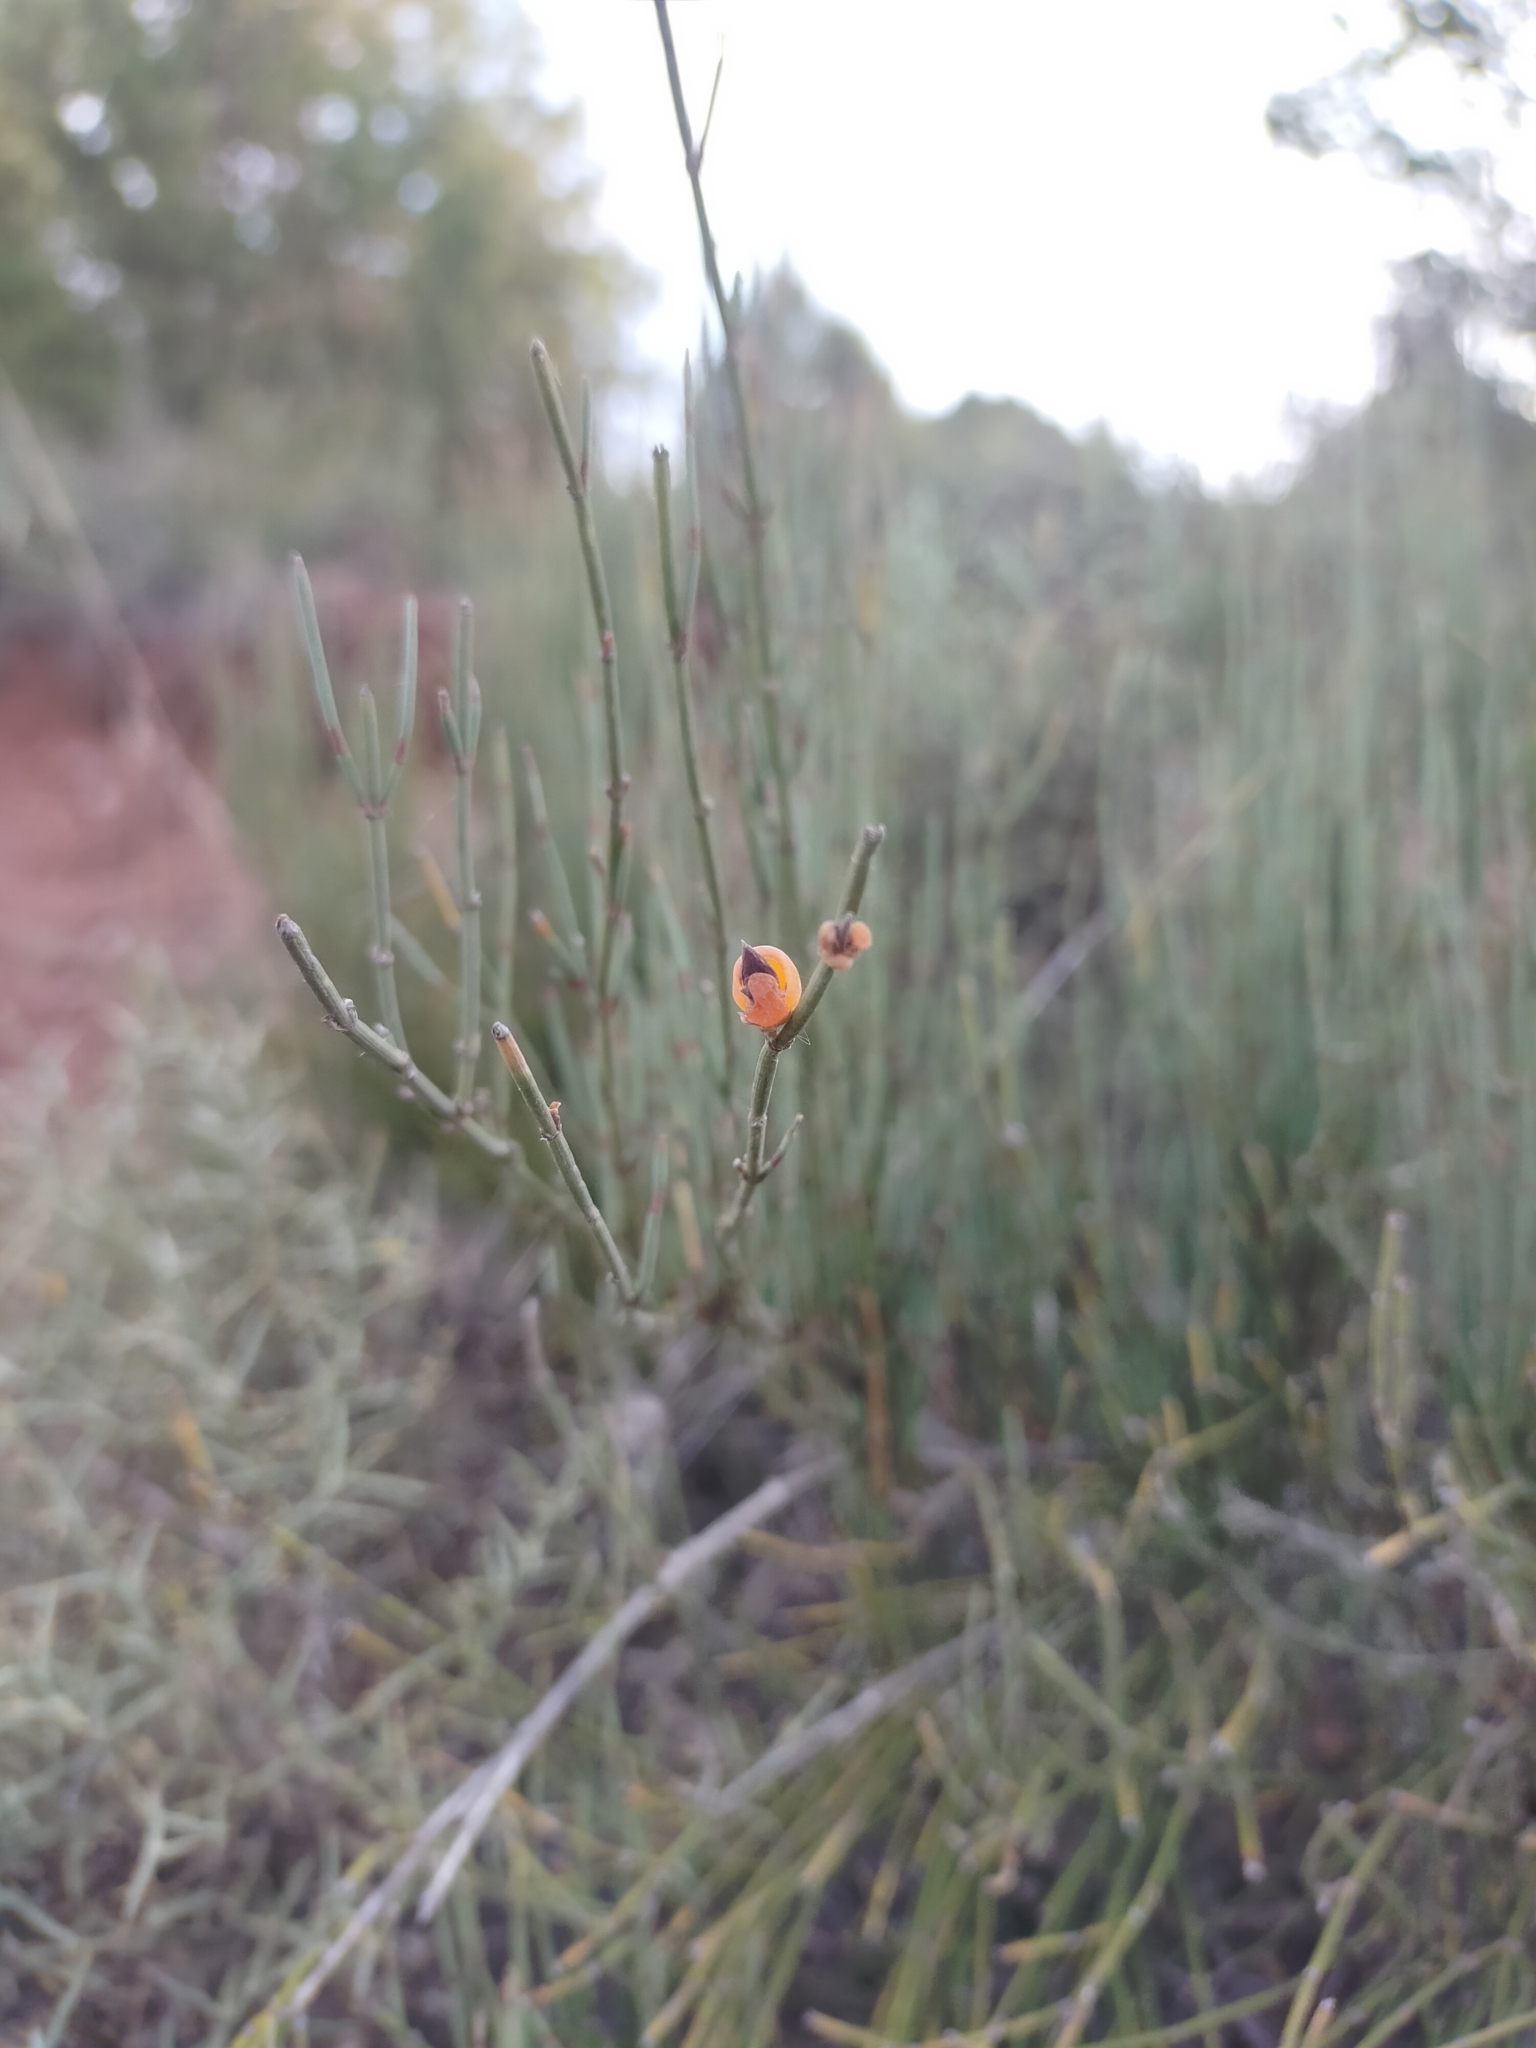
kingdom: Plantae
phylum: Tracheophyta
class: Gnetopsida
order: Ephedrales
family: Ephedraceae
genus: Ephedra
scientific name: Ephedra nebrodensis
